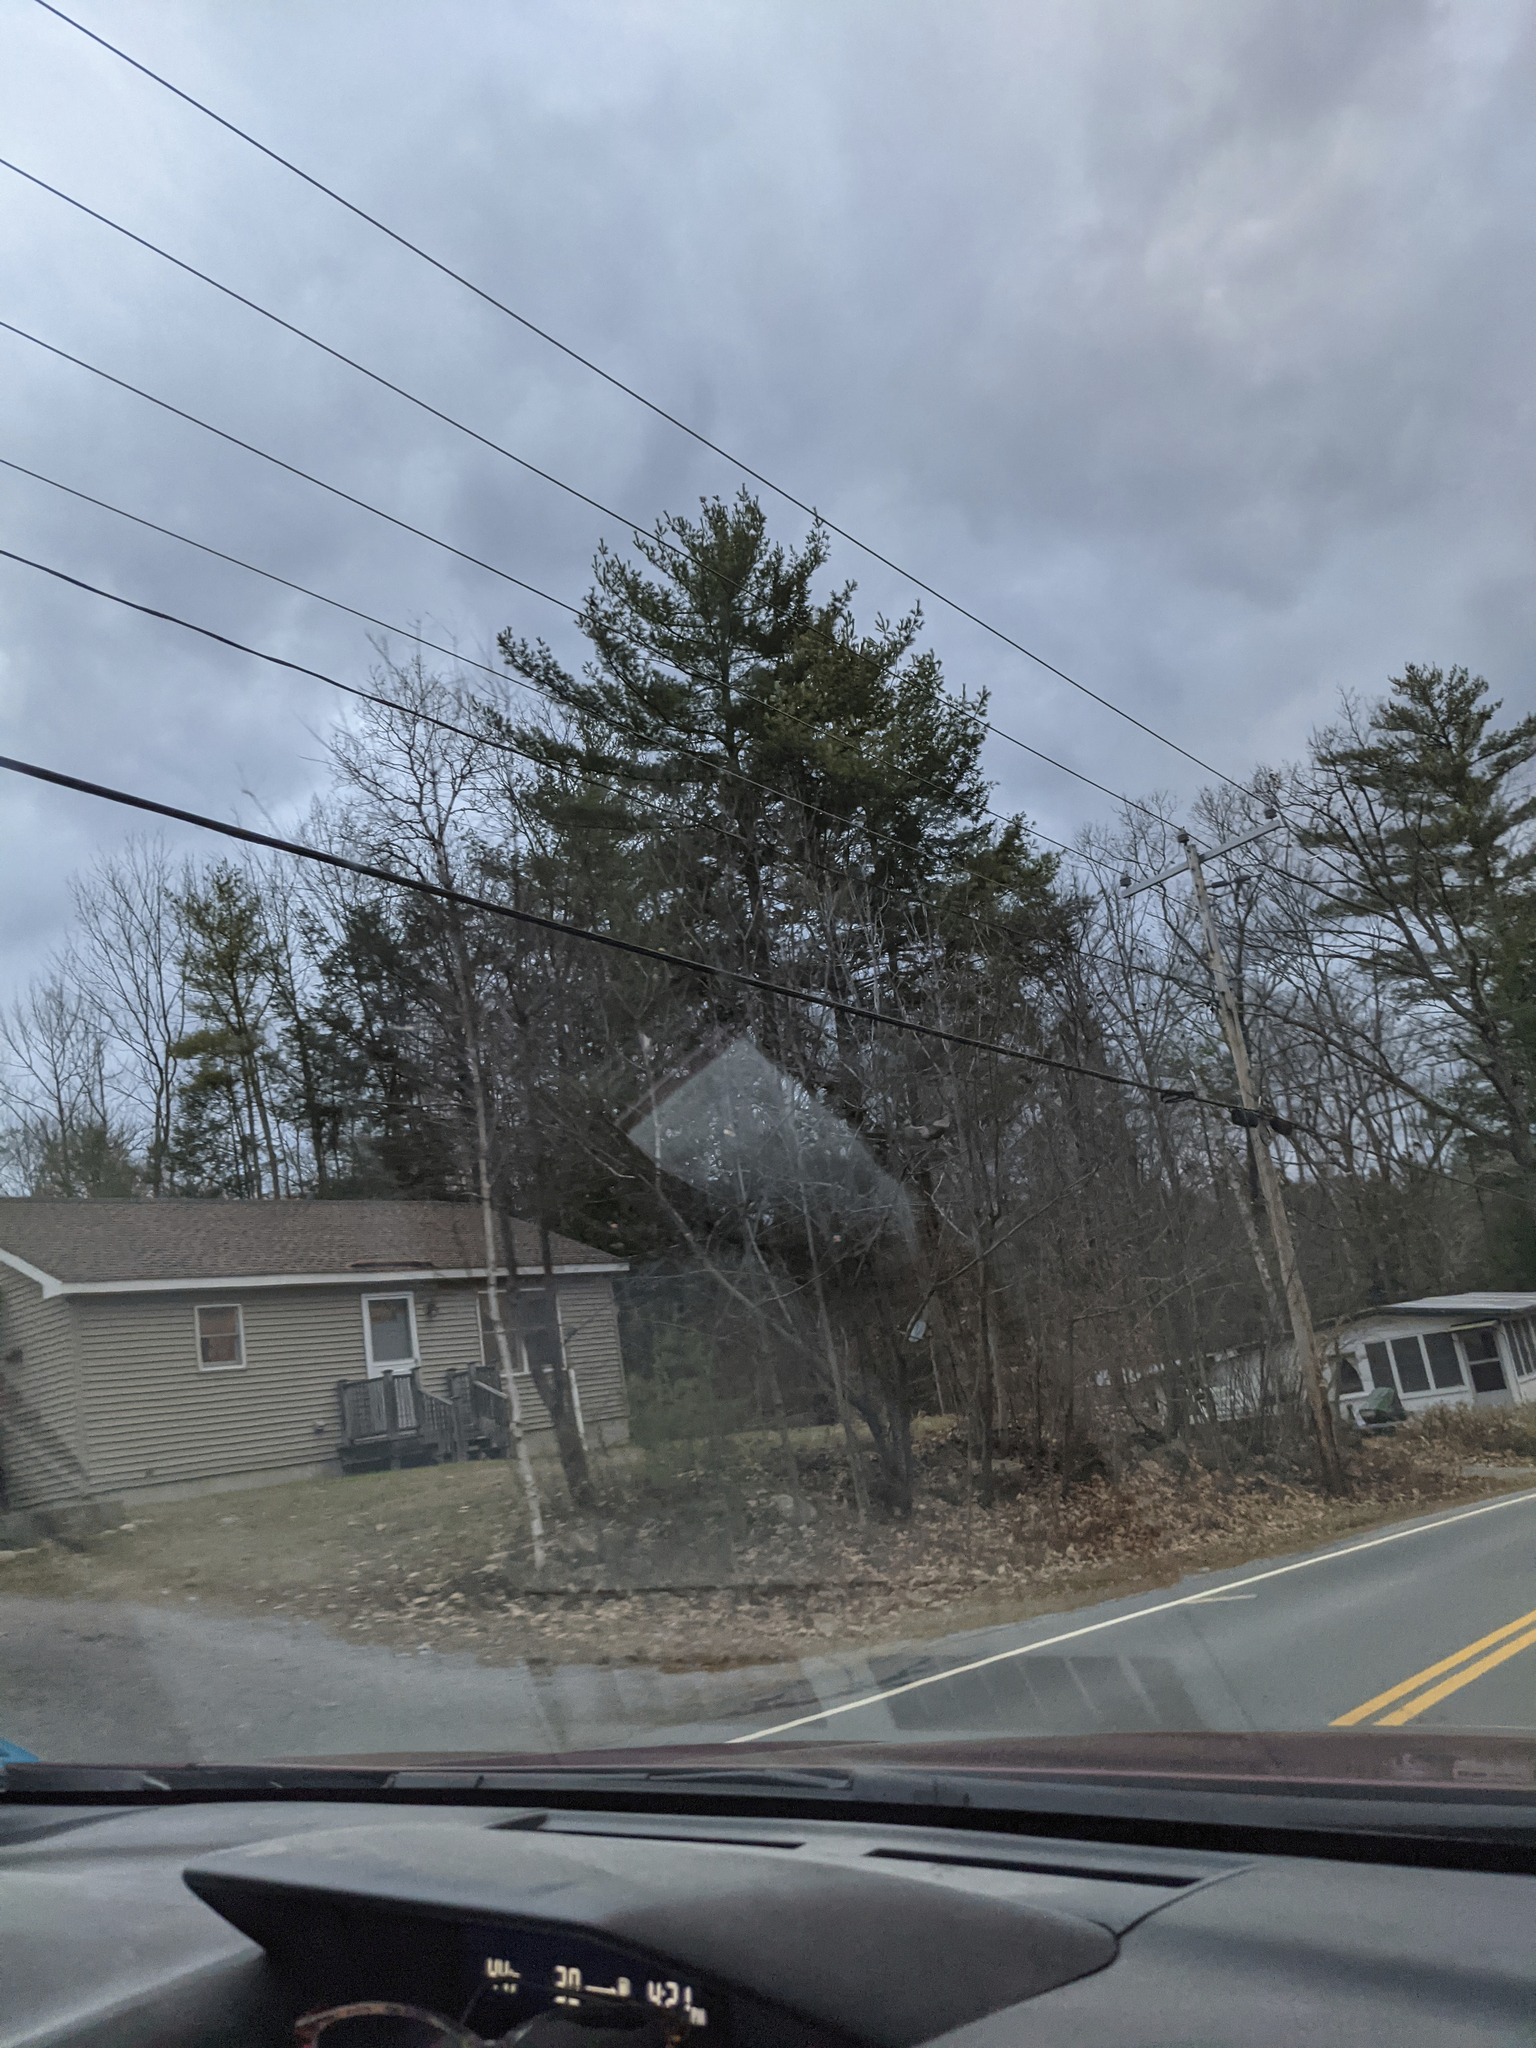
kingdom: Plantae
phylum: Tracheophyta
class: Pinopsida
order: Pinales
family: Pinaceae
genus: Pinus
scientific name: Pinus strobus
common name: Weymouth pine
